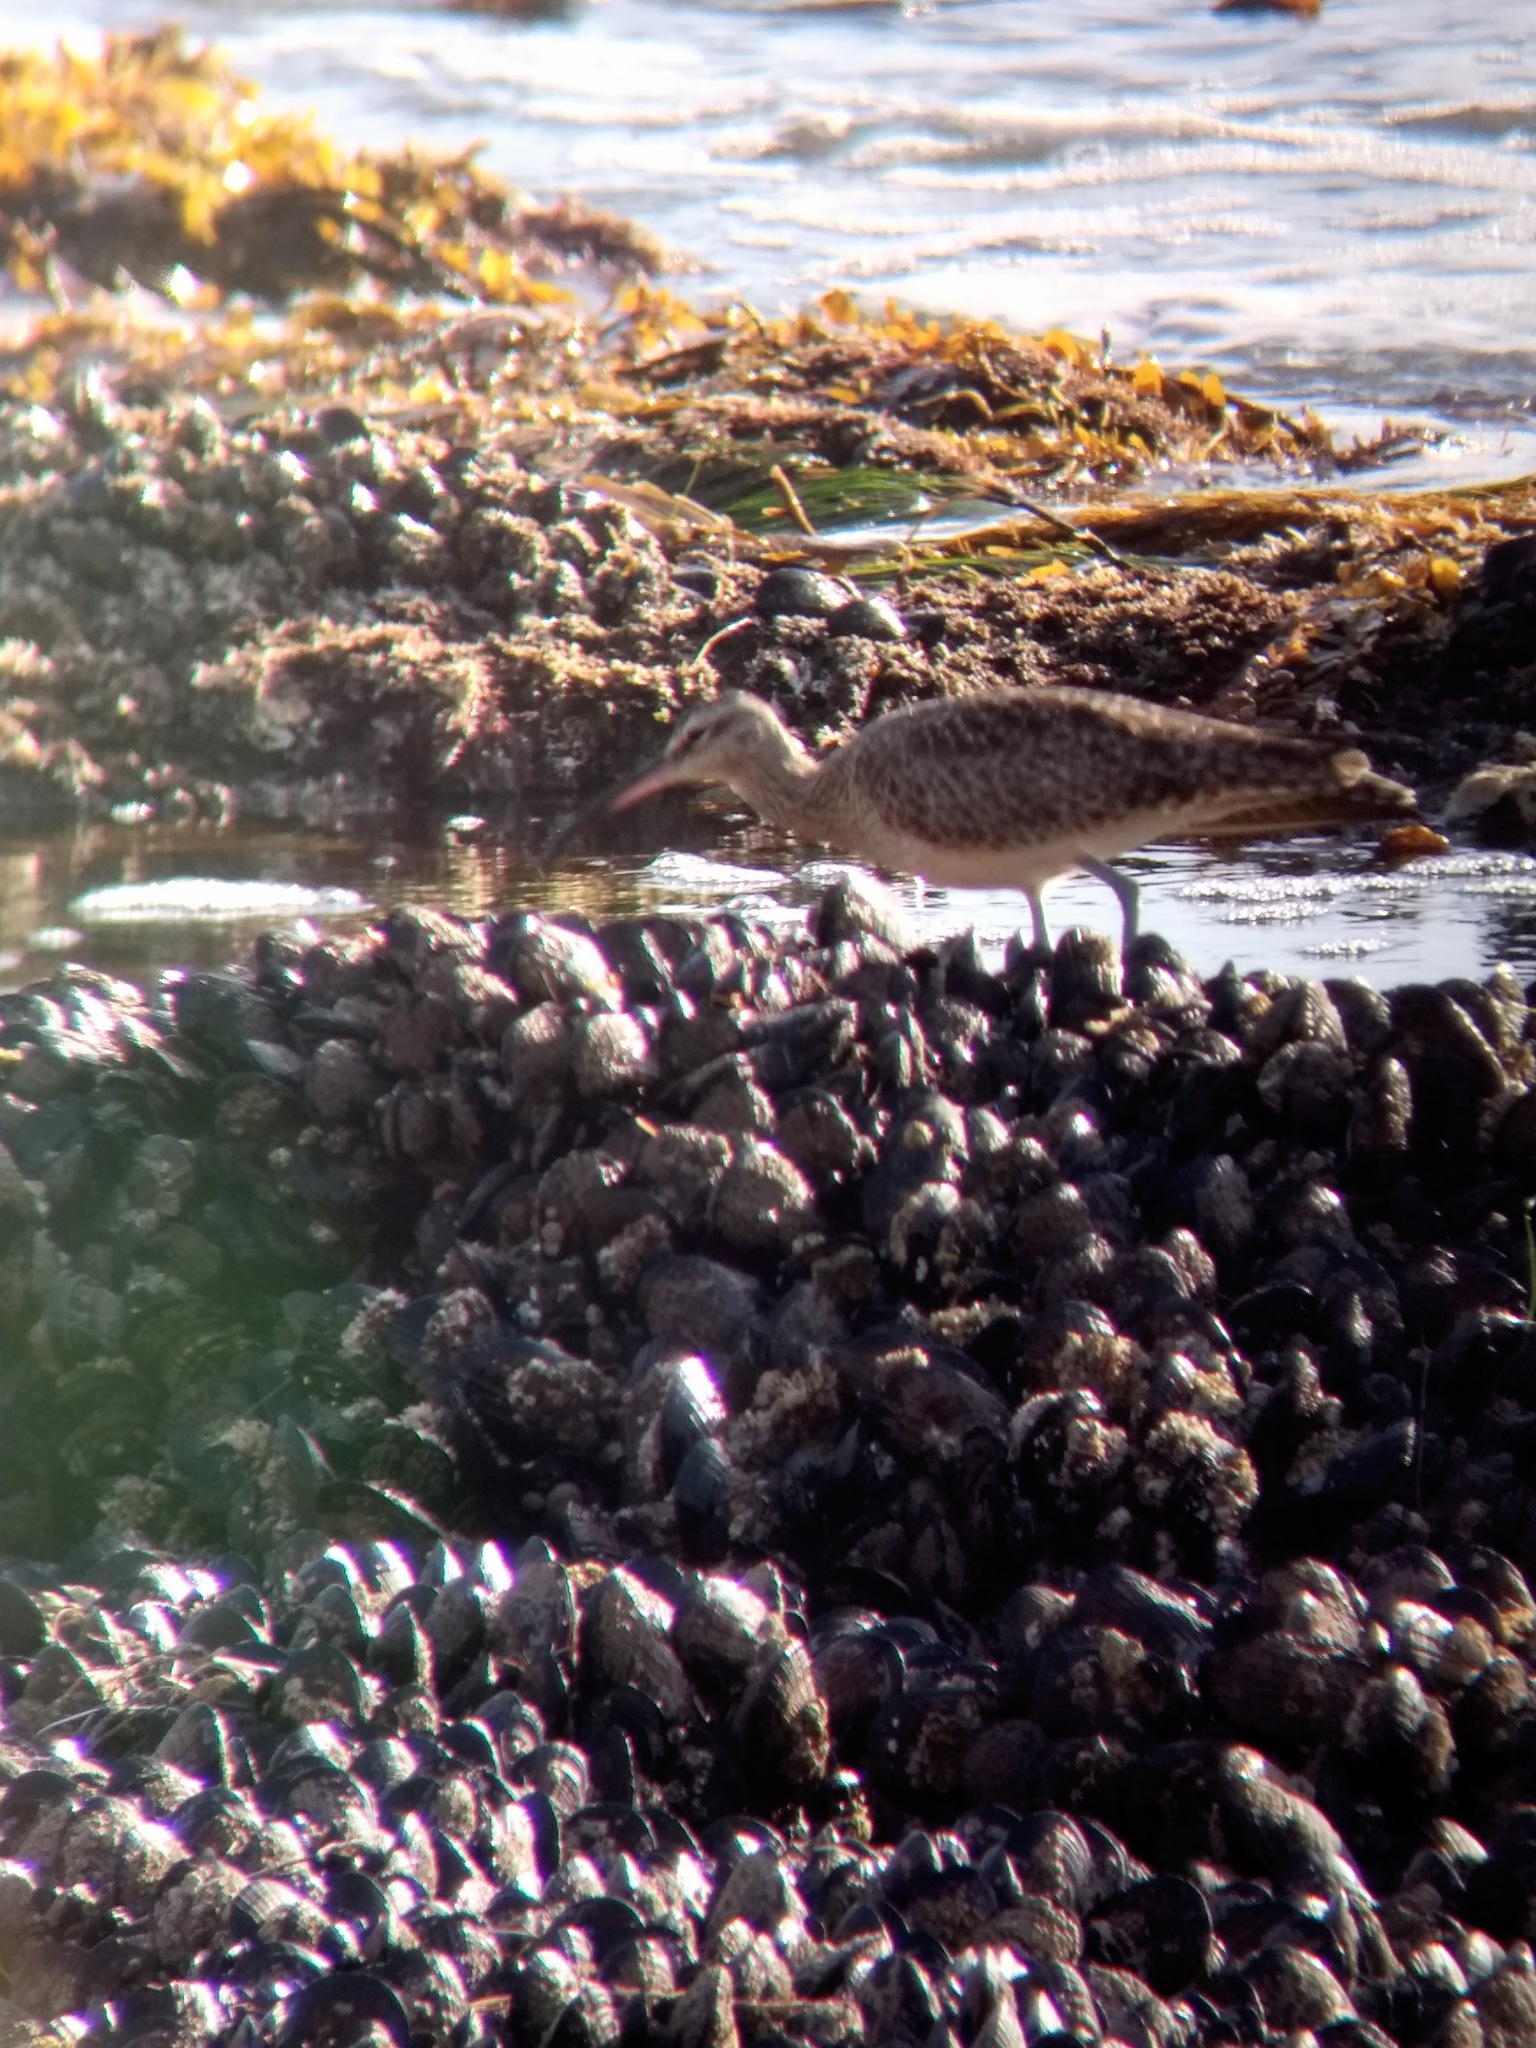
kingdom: Animalia
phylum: Chordata
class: Aves
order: Charadriiformes
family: Scolopacidae
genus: Numenius
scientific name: Numenius phaeopus
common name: Whimbrel
